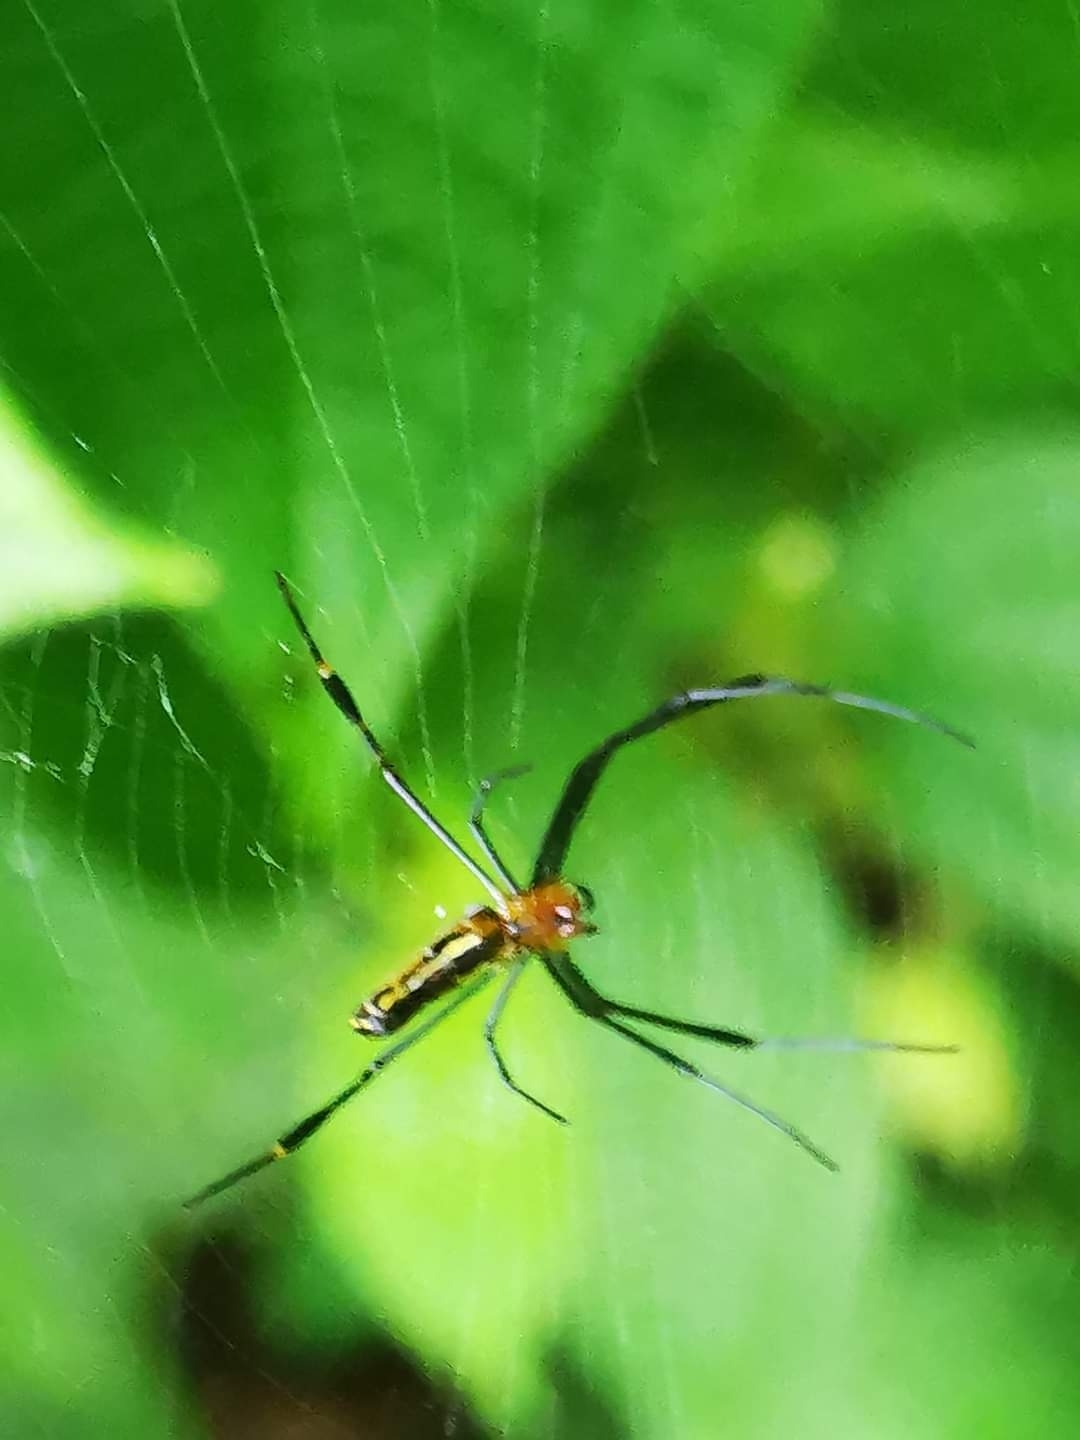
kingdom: Animalia
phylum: Arthropoda
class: Arachnida
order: Araneae
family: Araneidae
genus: Nephila
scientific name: Nephila pilipes
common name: Giant golden orb weaver
